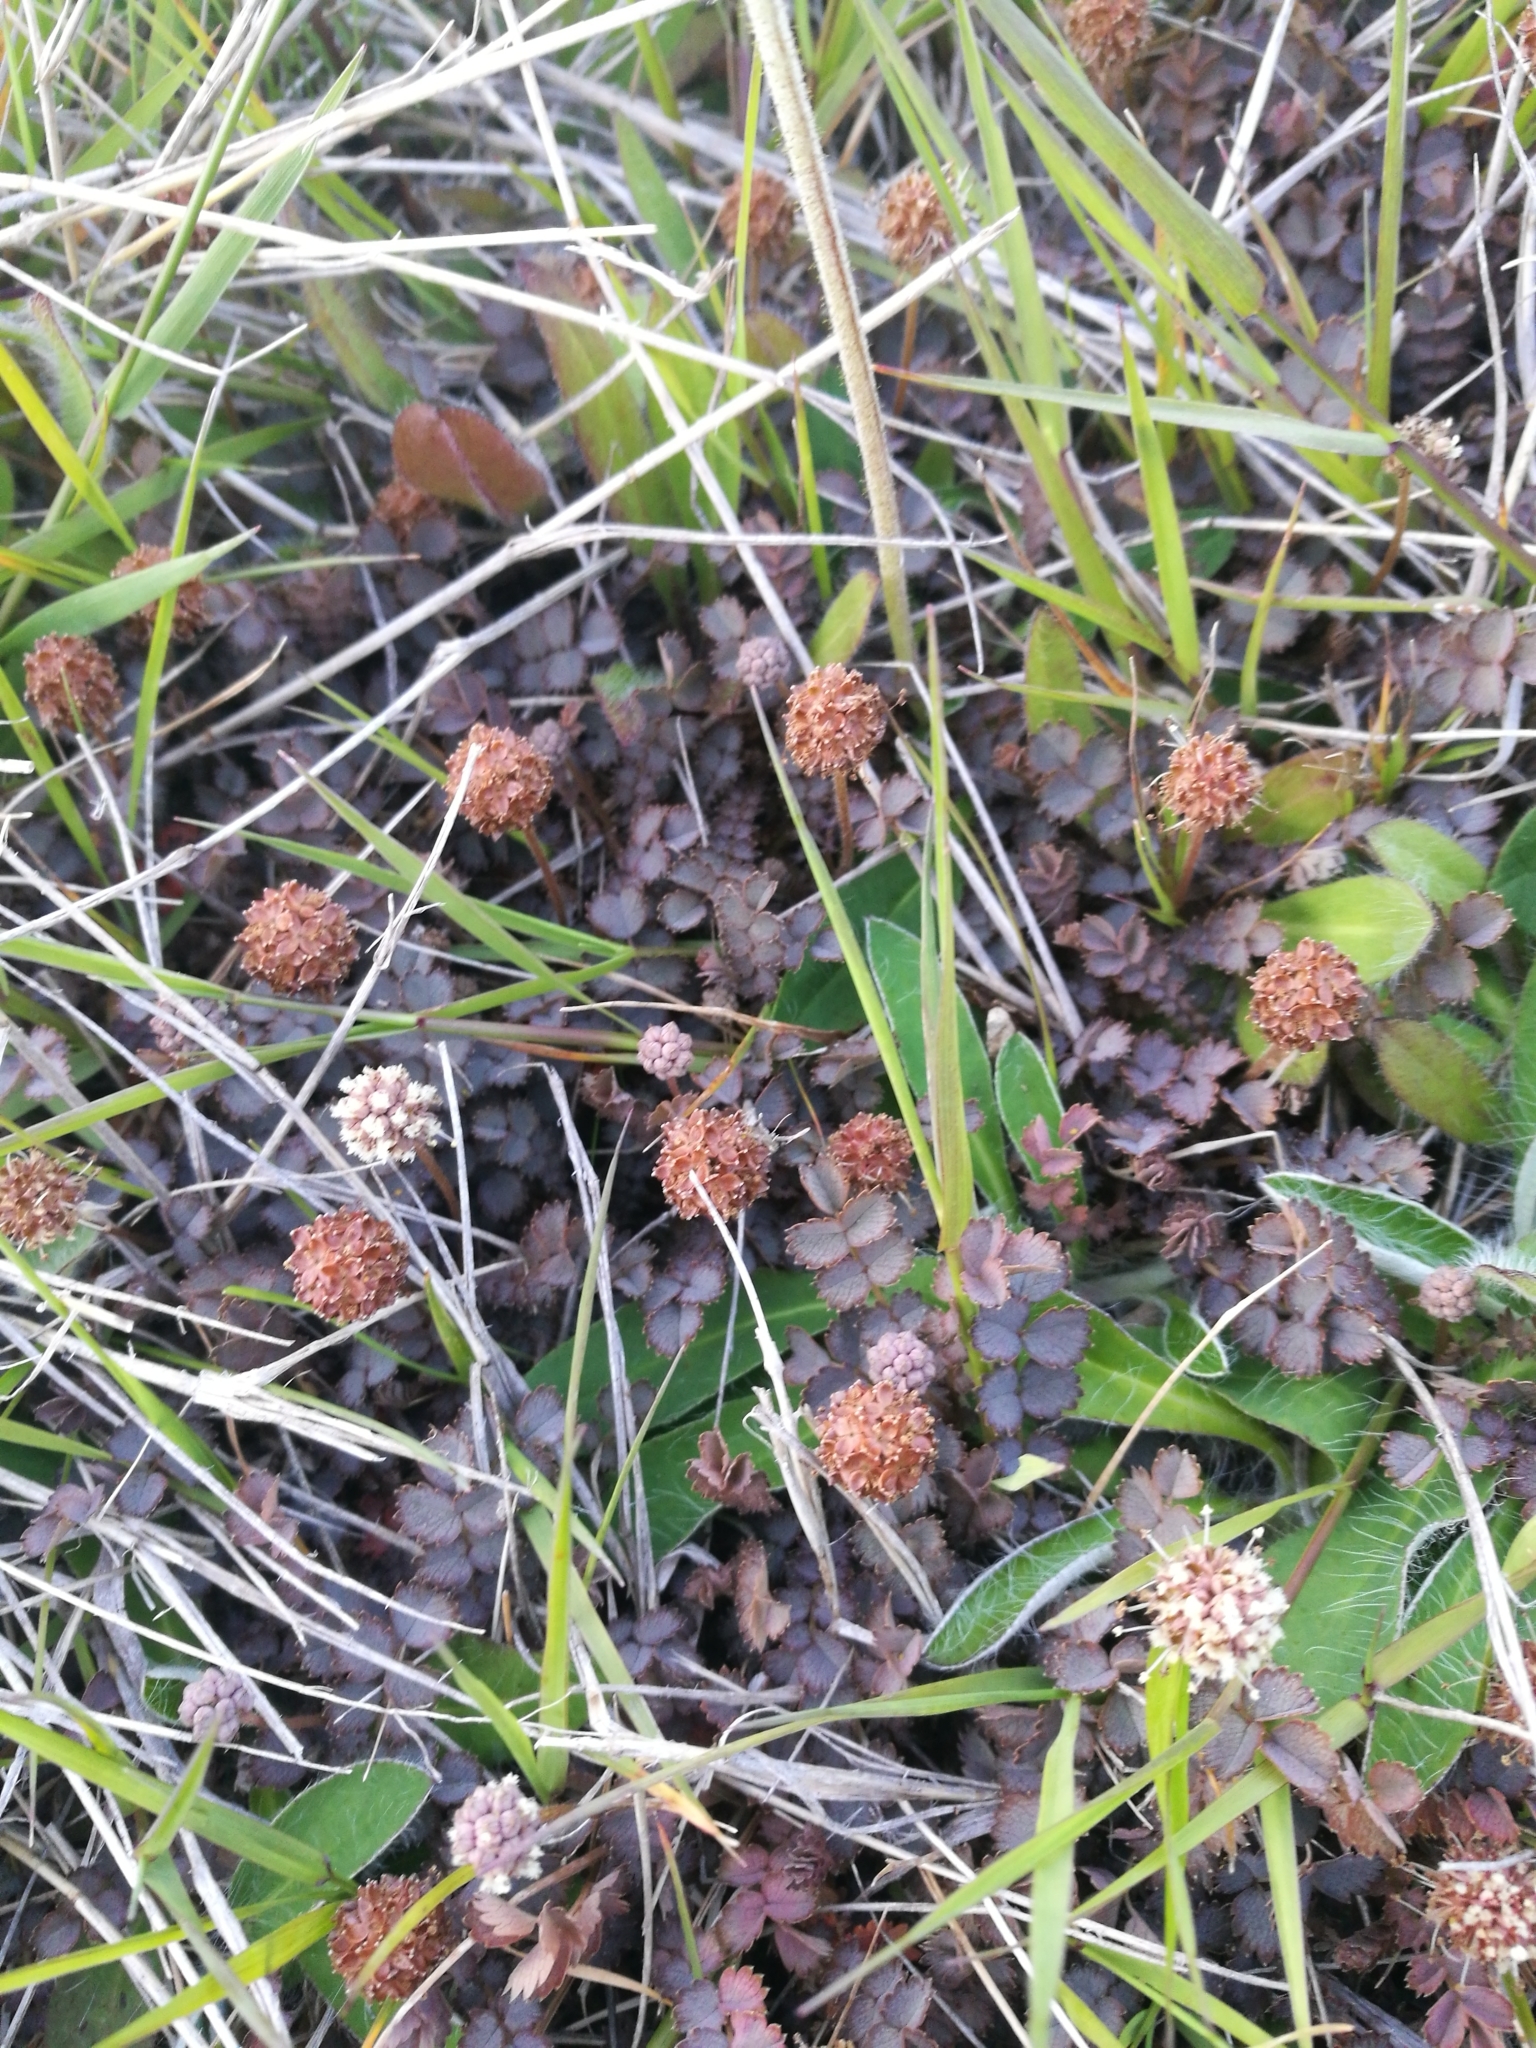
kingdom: Plantae
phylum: Tracheophyta
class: Magnoliopsida
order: Rosales
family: Rosaceae
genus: Acaena
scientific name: Acaena inermis
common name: Spineless acaena
